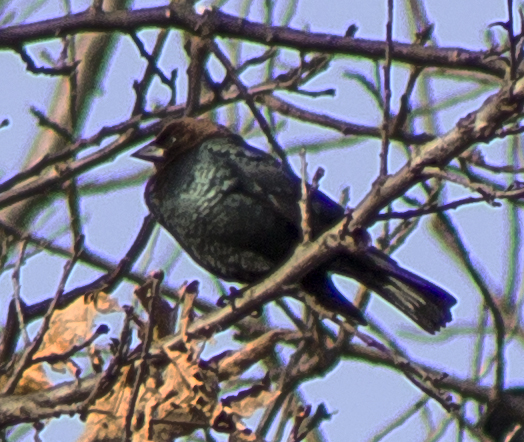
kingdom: Animalia
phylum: Chordata
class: Aves
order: Passeriformes
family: Icteridae
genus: Molothrus
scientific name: Molothrus ater
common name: Brown-headed cowbird
